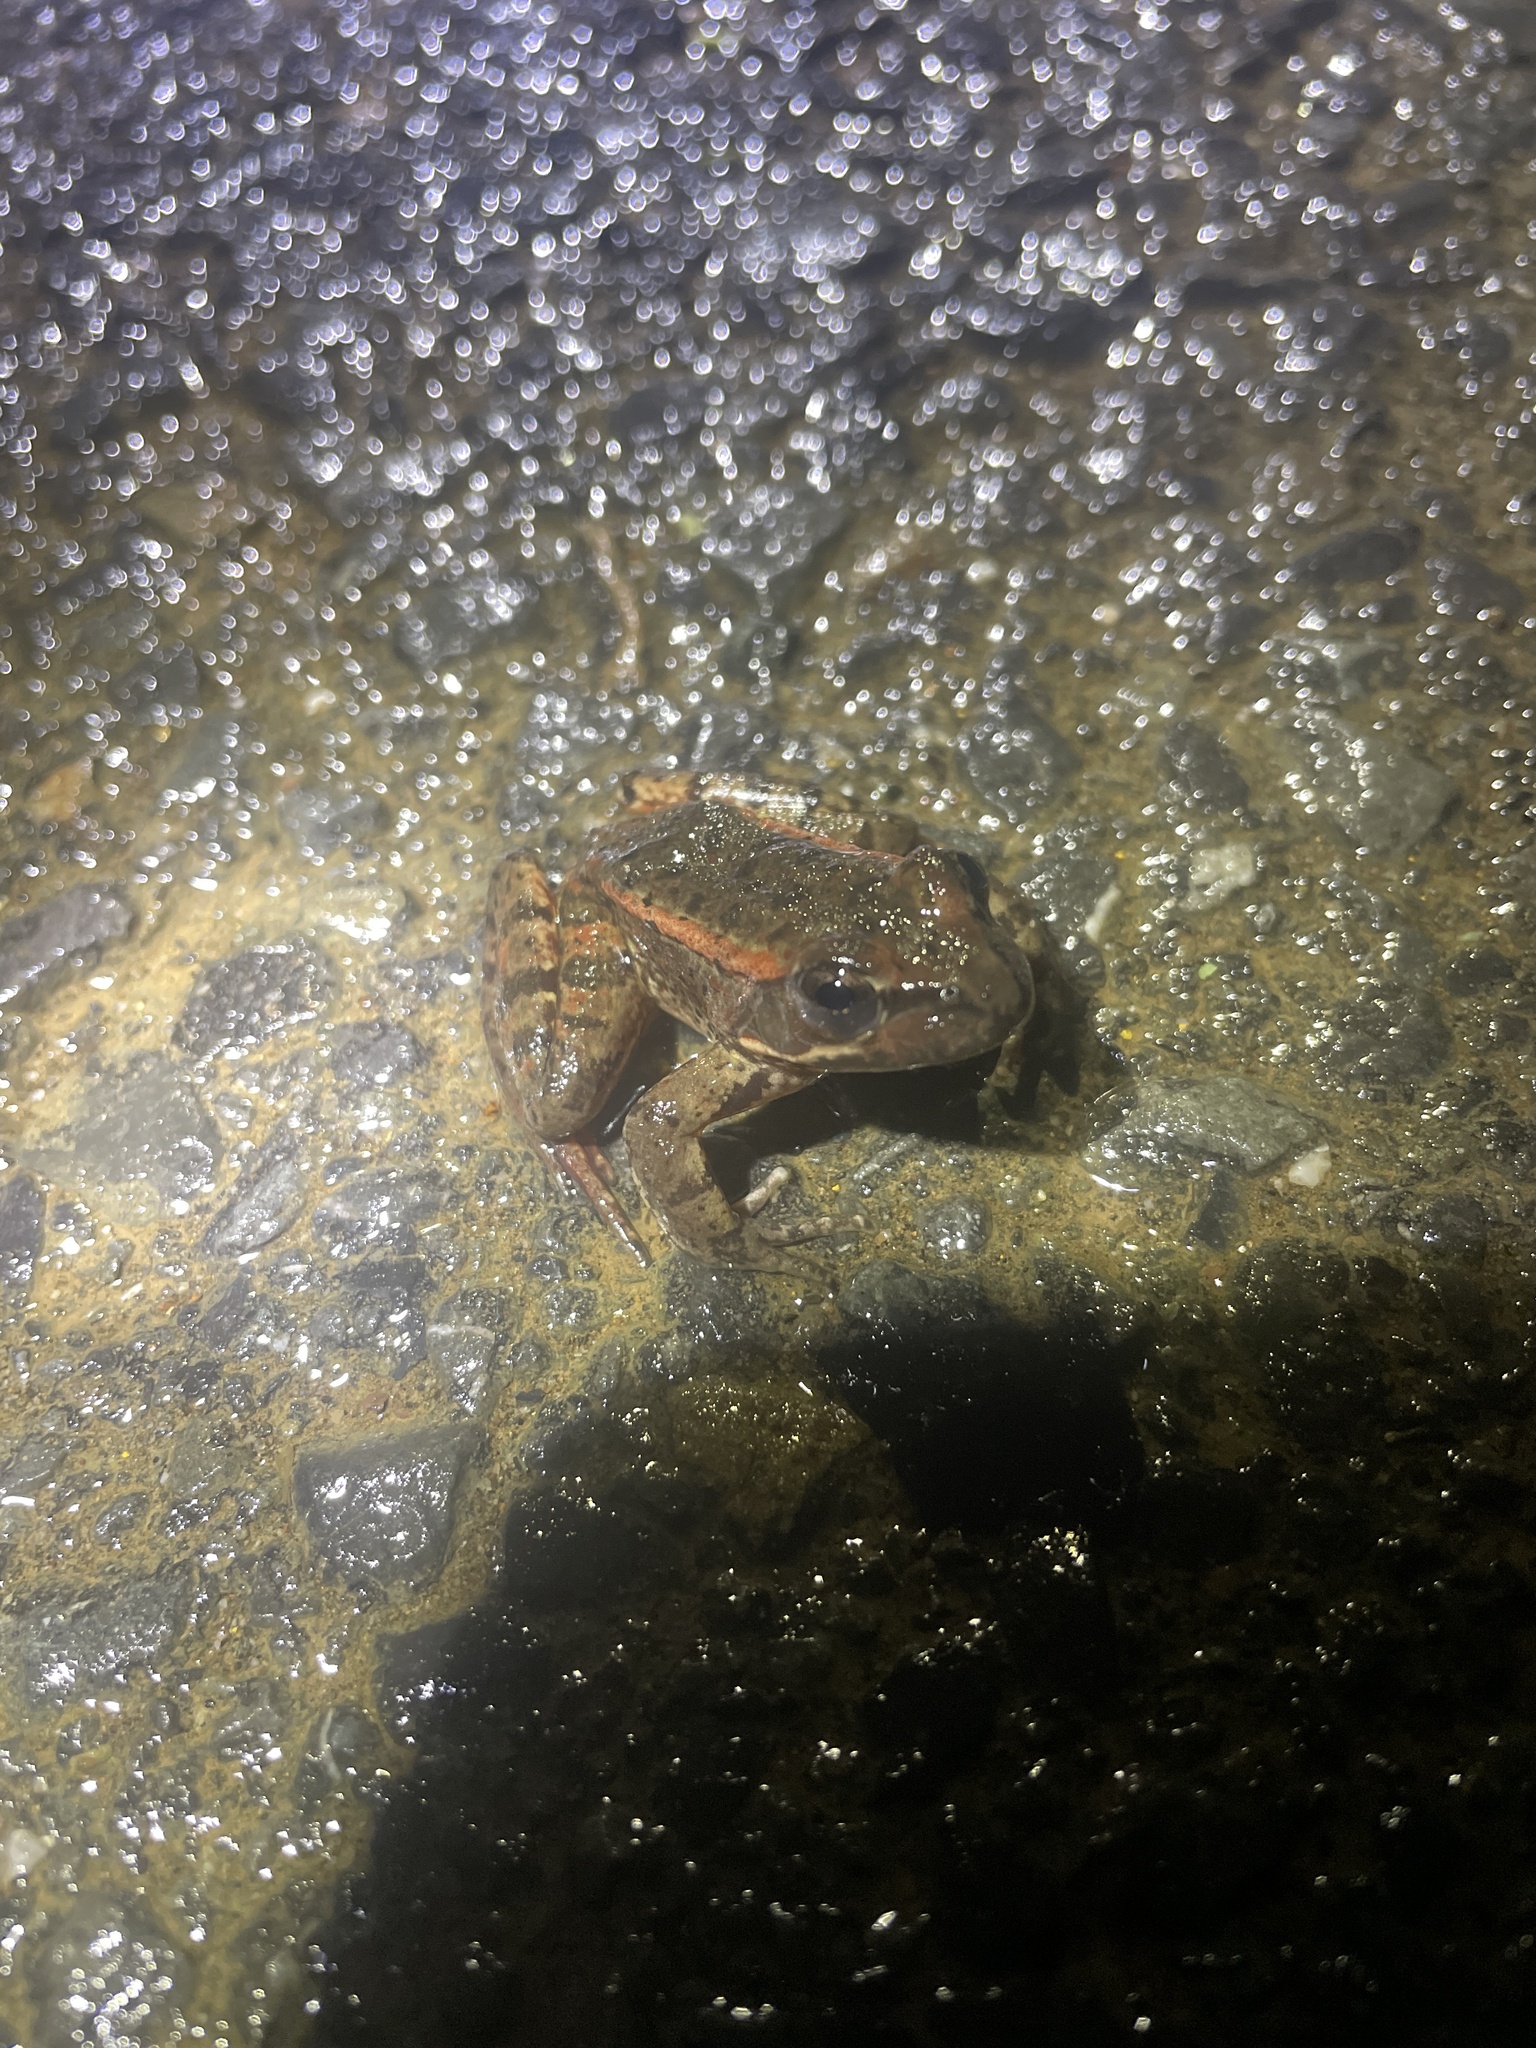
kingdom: Animalia
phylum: Chordata
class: Amphibia
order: Anura
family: Ranidae
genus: Rana
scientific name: Rana draytonii
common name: California red-legged frog
